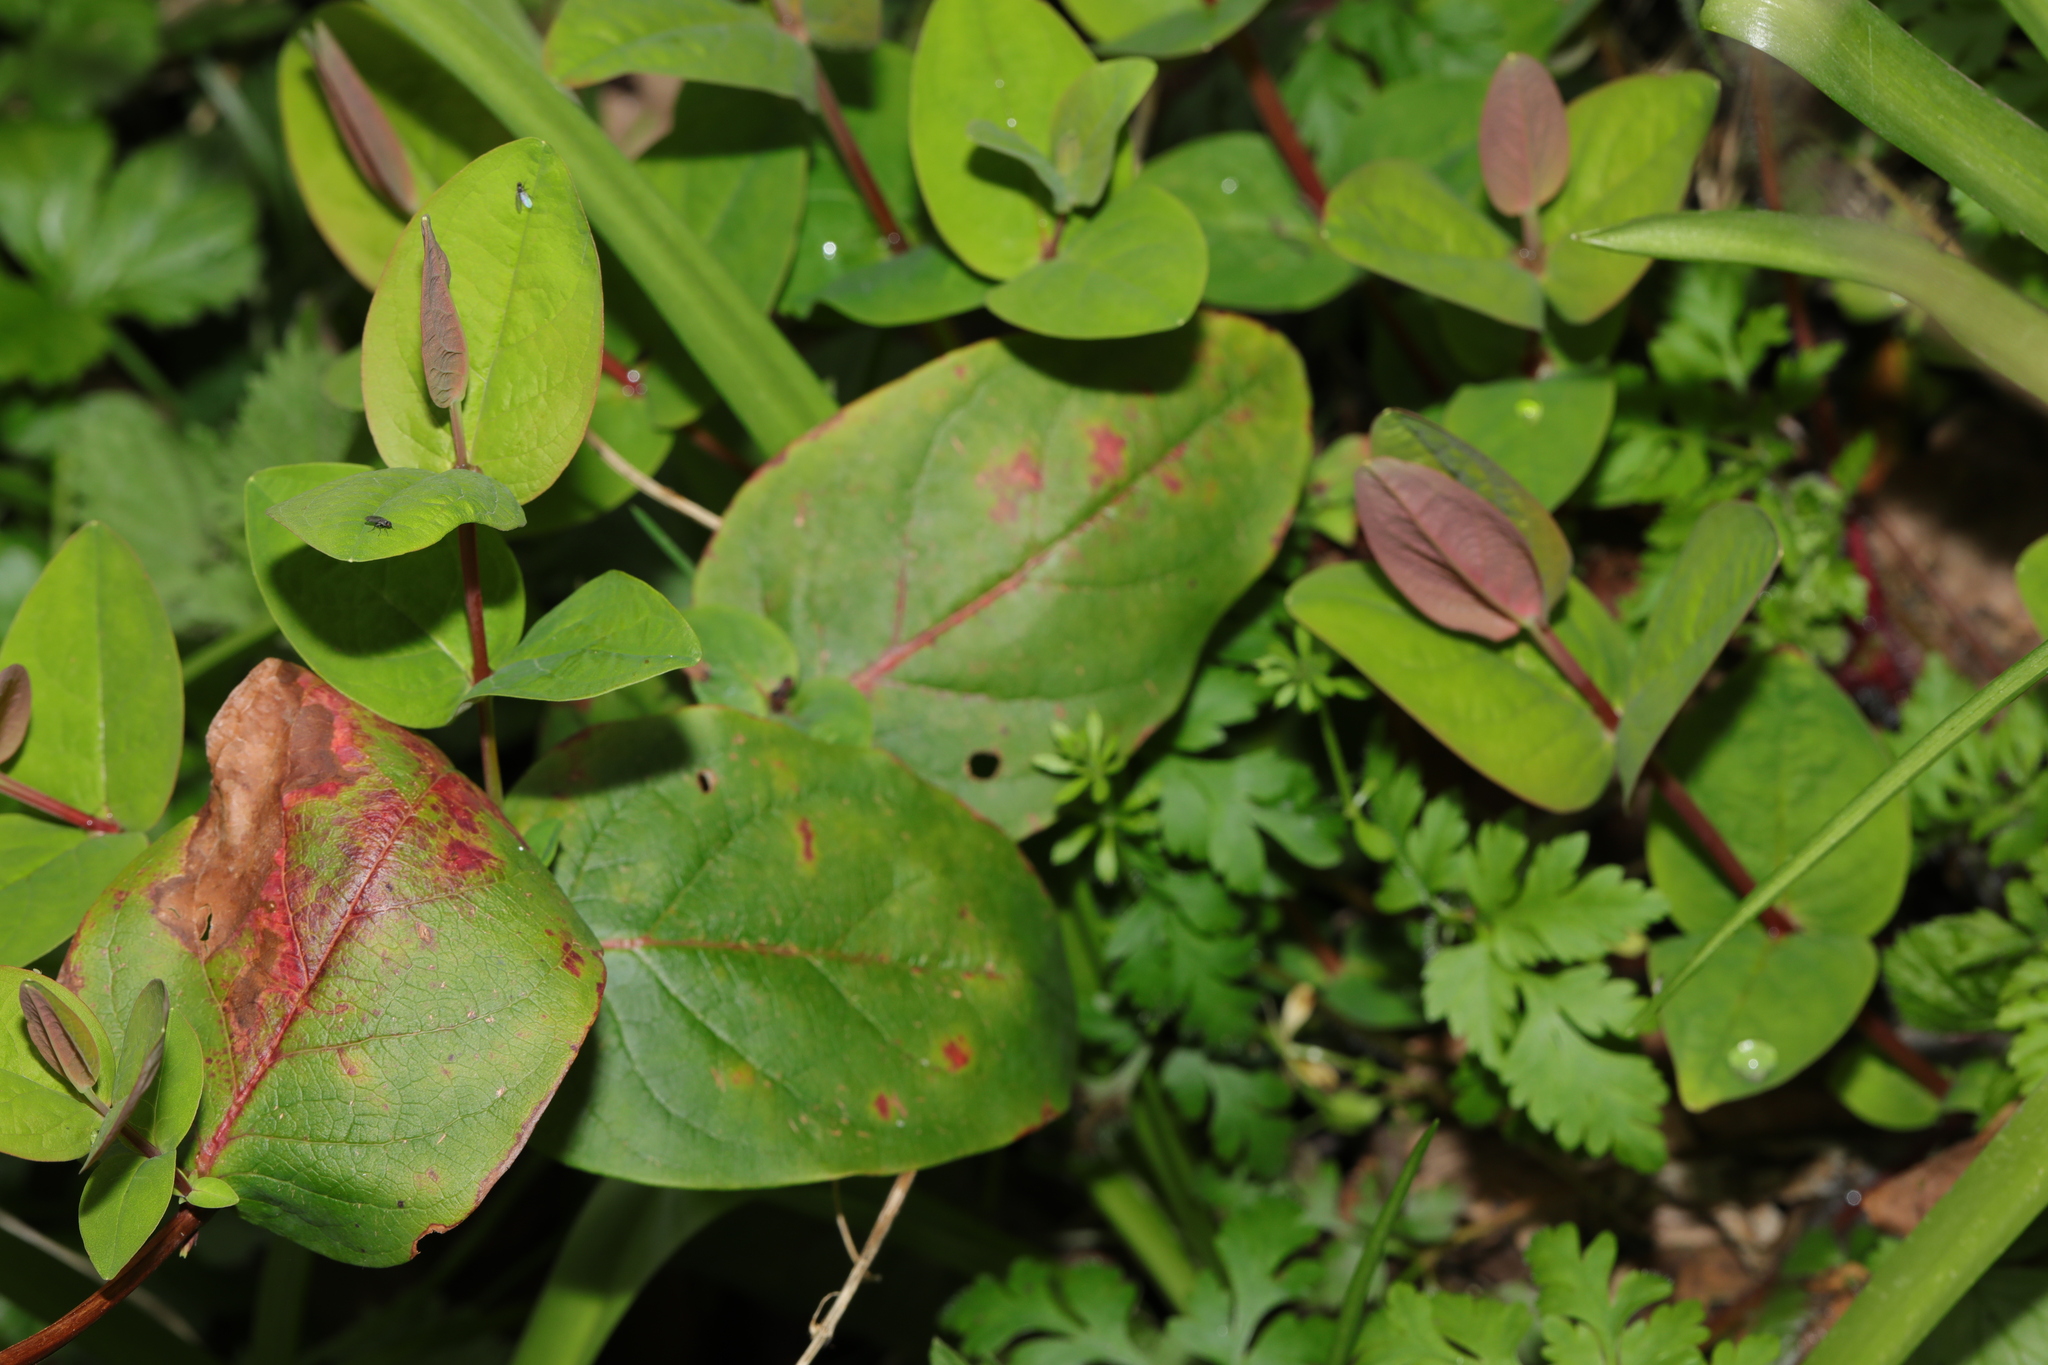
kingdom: Plantae
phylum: Tracheophyta
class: Magnoliopsida
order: Malpighiales
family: Hypericaceae
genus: Hypericum
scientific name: Hypericum androsaemum
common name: Sweet-amber
